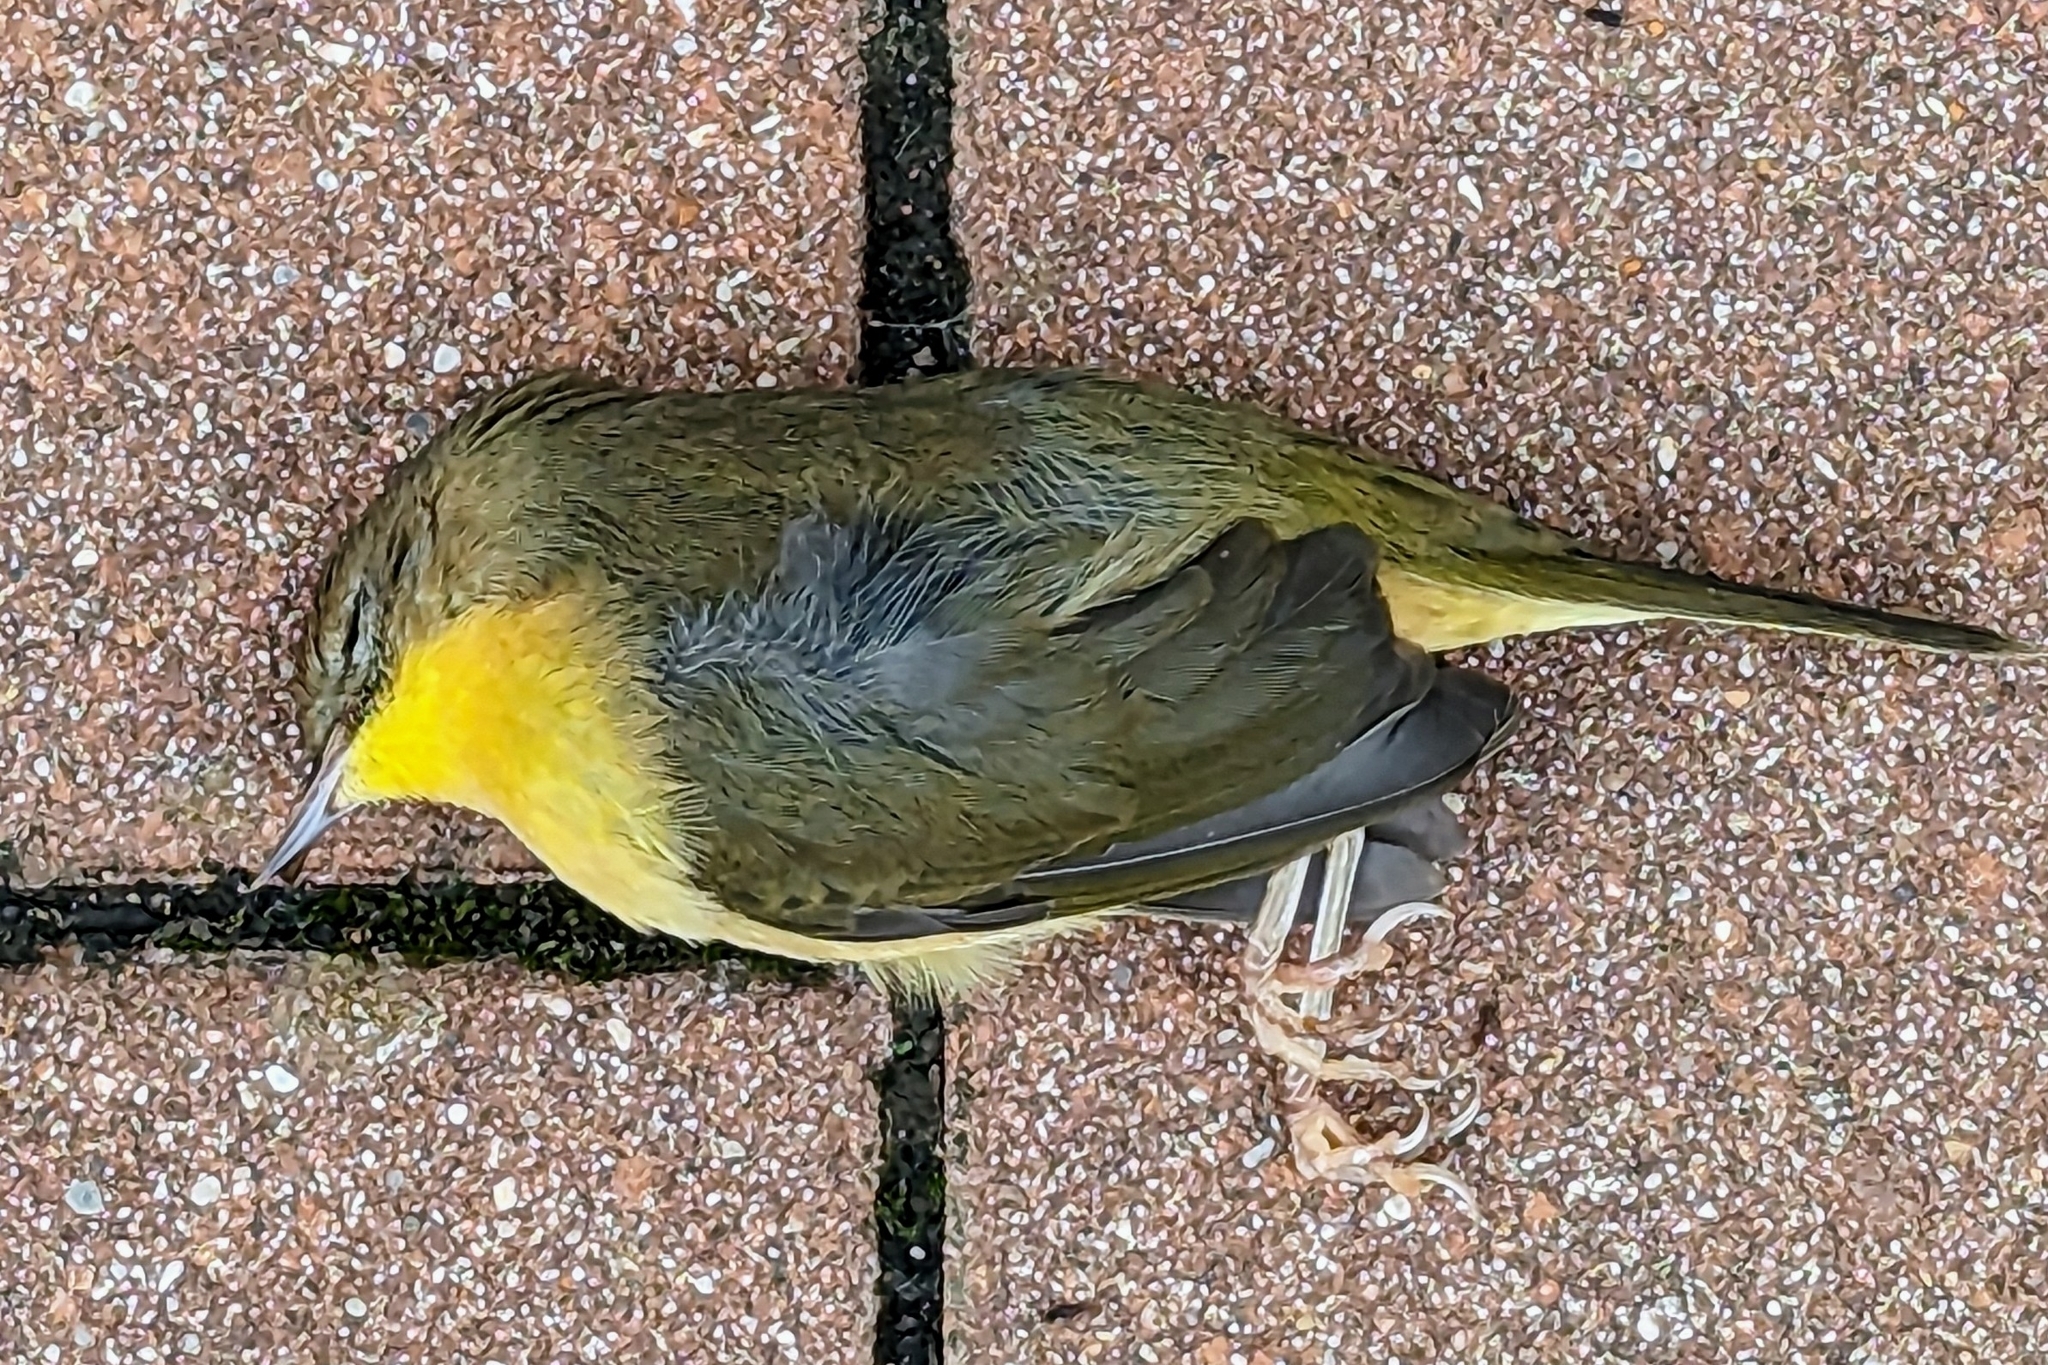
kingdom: Animalia
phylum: Chordata
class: Aves
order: Passeriformes
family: Parulidae
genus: Geothlypis
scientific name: Geothlypis trichas
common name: Common yellowthroat
